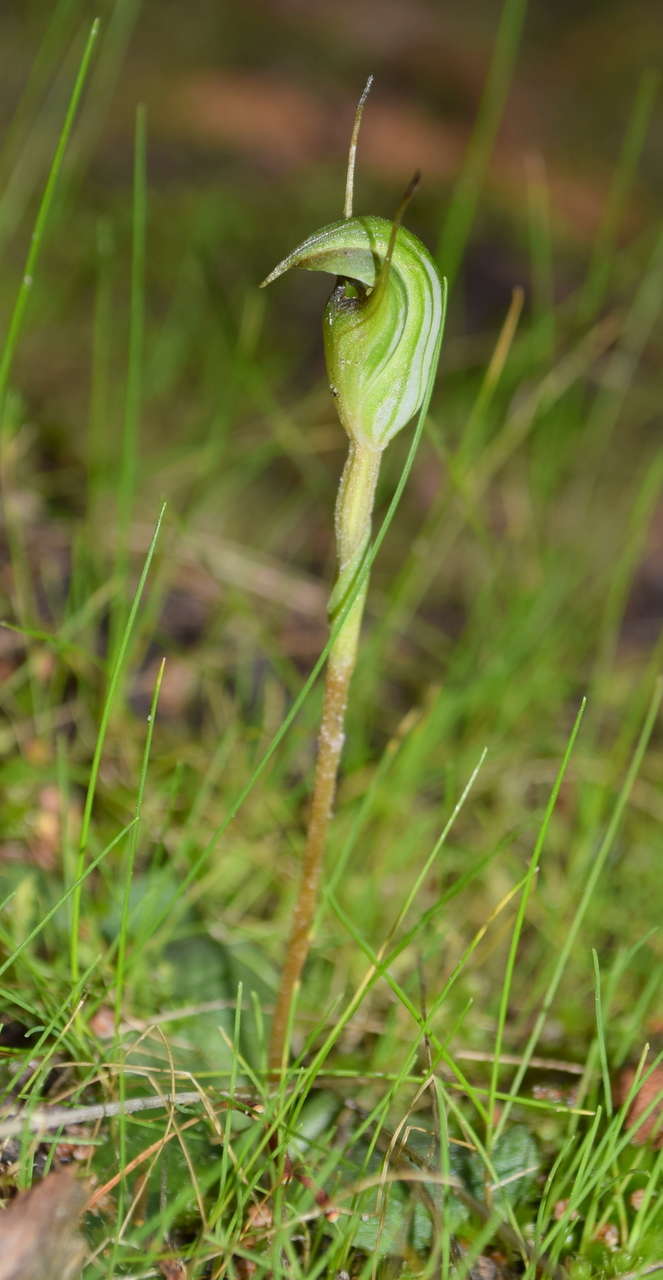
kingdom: Plantae
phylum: Tracheophyta
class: Liliopsida
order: Asparagales
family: Orchidaceae
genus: Pterostylis
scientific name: Pterostylis concinna
